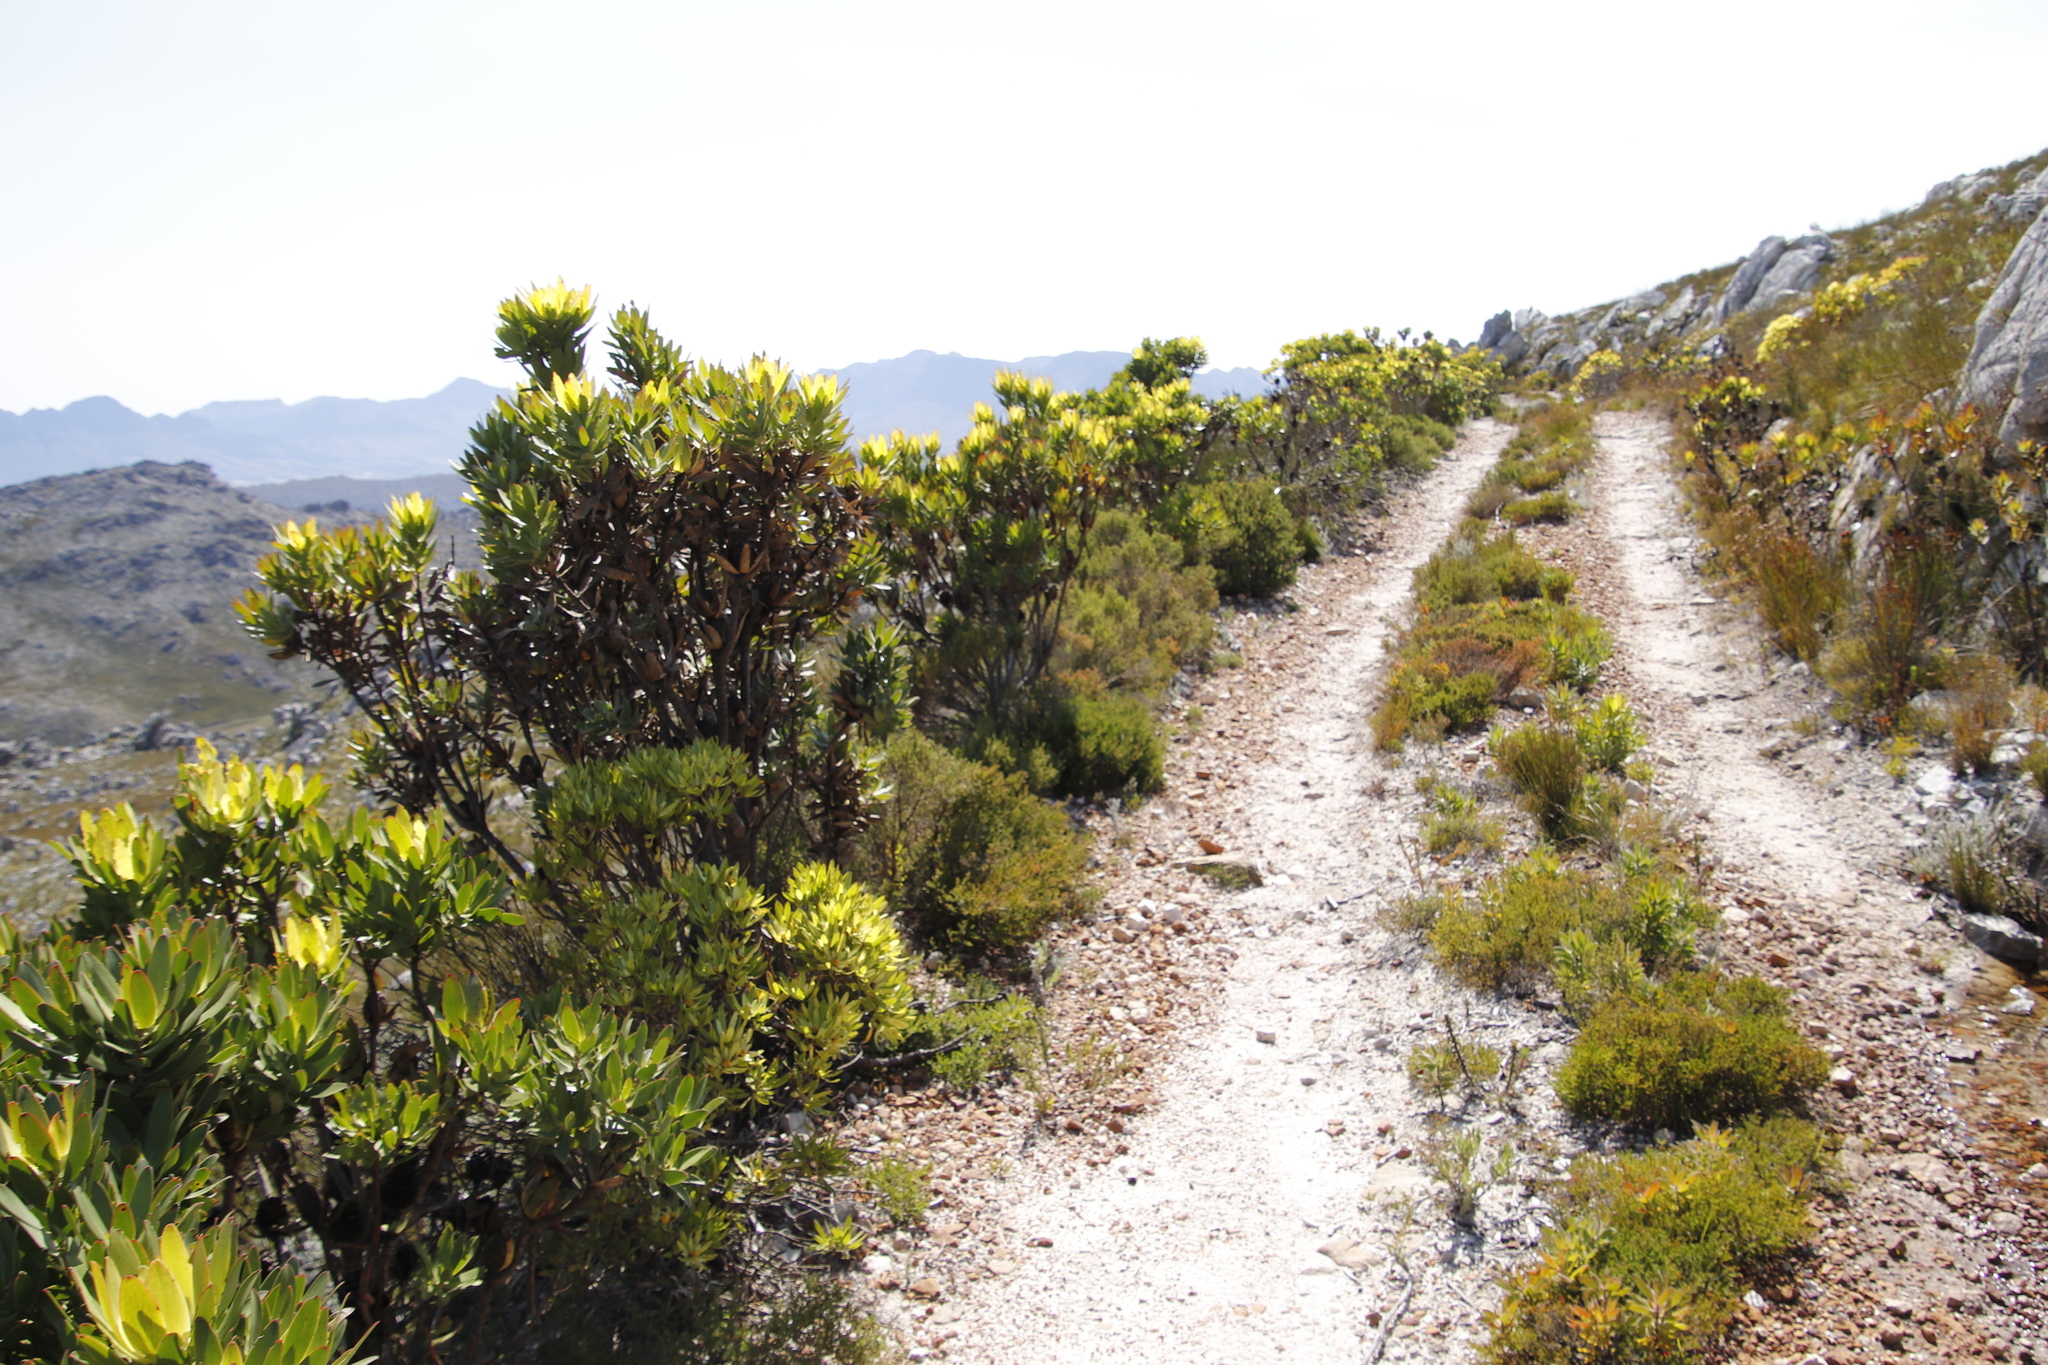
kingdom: Plantae
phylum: Tracheophyta
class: Magnoliopsida
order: Proteales
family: Proteaceae
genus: Leucadendron
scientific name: Leucadendron microcephalum
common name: Oilbract conebush
